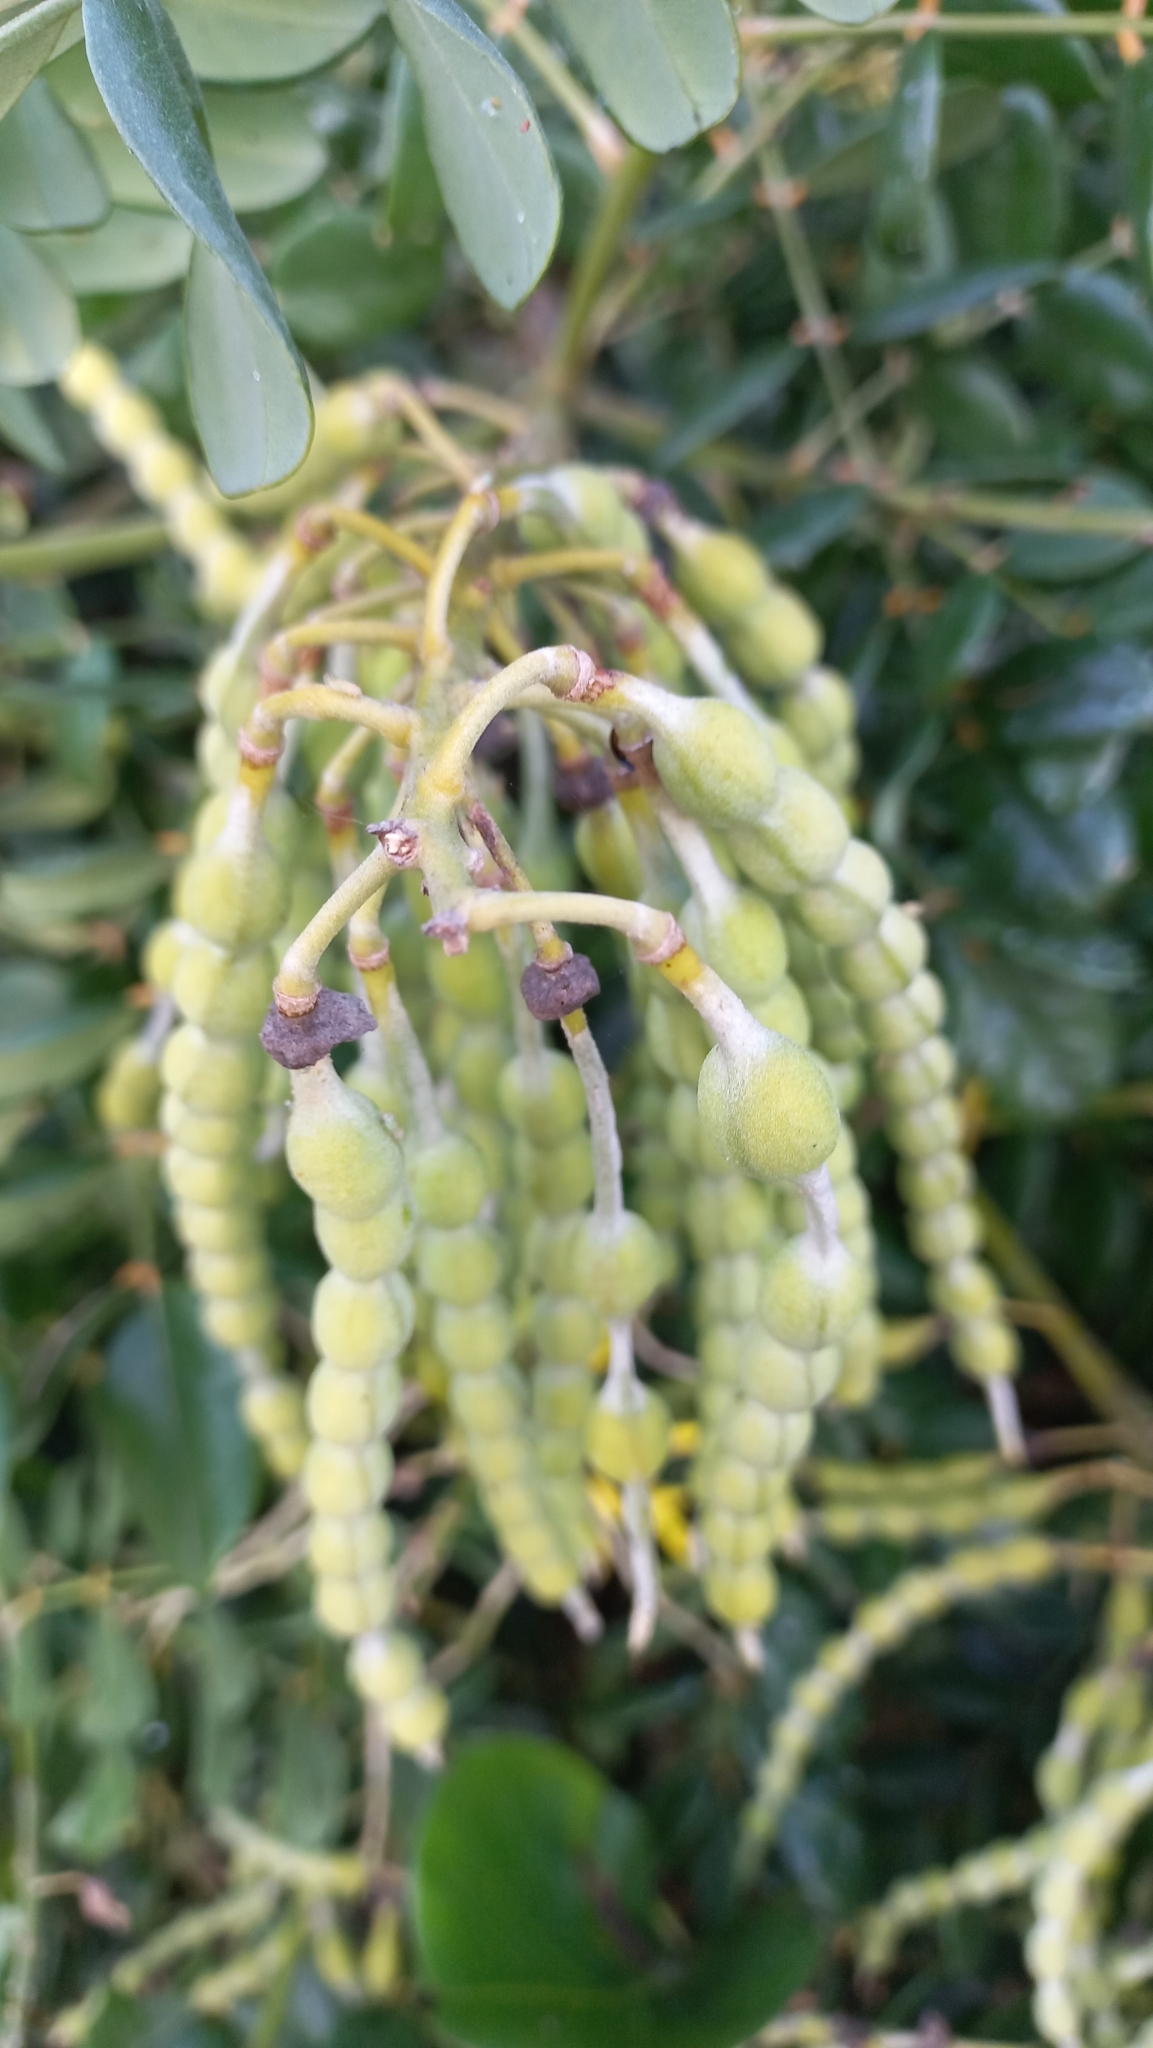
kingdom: Plantae
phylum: Tracheophyta
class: Magnoliopsida
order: Fabales
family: Fabaceae
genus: Sophora
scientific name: Sophora tomentosa
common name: Yellow necklacepod
